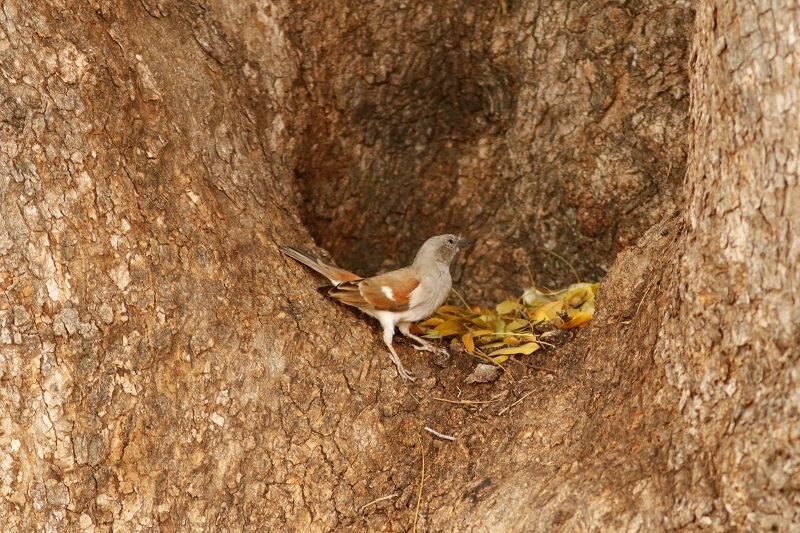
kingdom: Animalia
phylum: Chordata
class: Aves
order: Passeriformes
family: Passeridae
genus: Passer
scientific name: Passer diffusus
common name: Southern grey-headed sparrow
